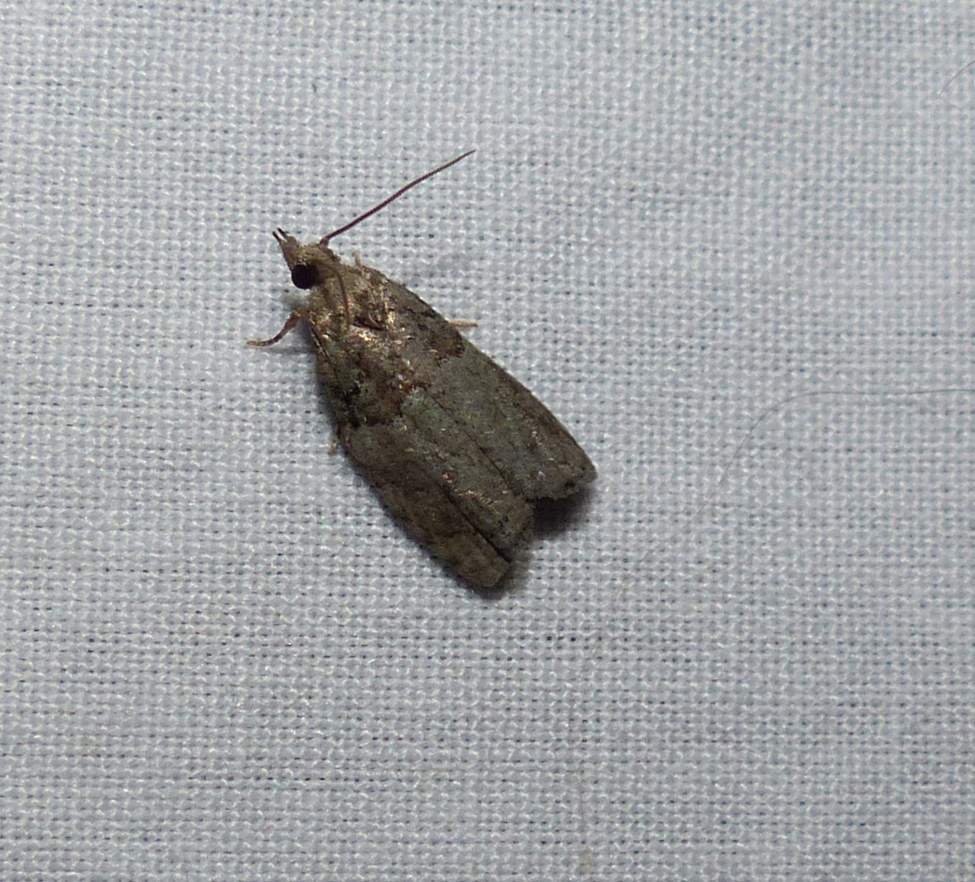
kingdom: Animalia
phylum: Arthropoda
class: Insecta
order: Lepidoptera
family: Tortricidae
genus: Epinotia
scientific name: Epinotia medioviridana
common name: Raspberry leaf-roller moth
